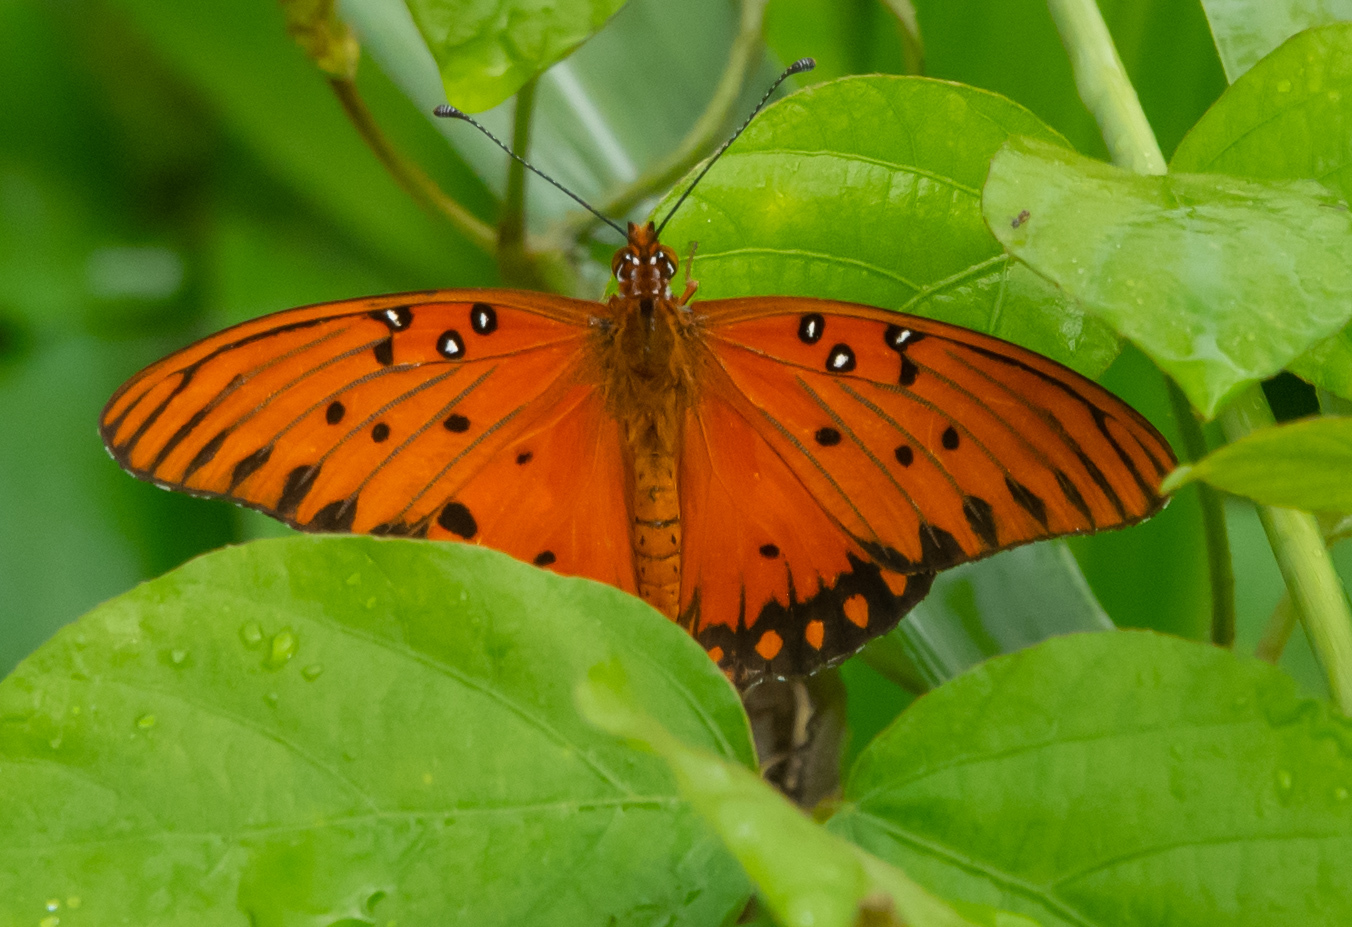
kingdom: Animalia
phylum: Arthropoda
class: Insecta
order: Lepidoptera
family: Nymphalidae
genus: Dione
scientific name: Dione vanillae
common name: Gulf fritillary
